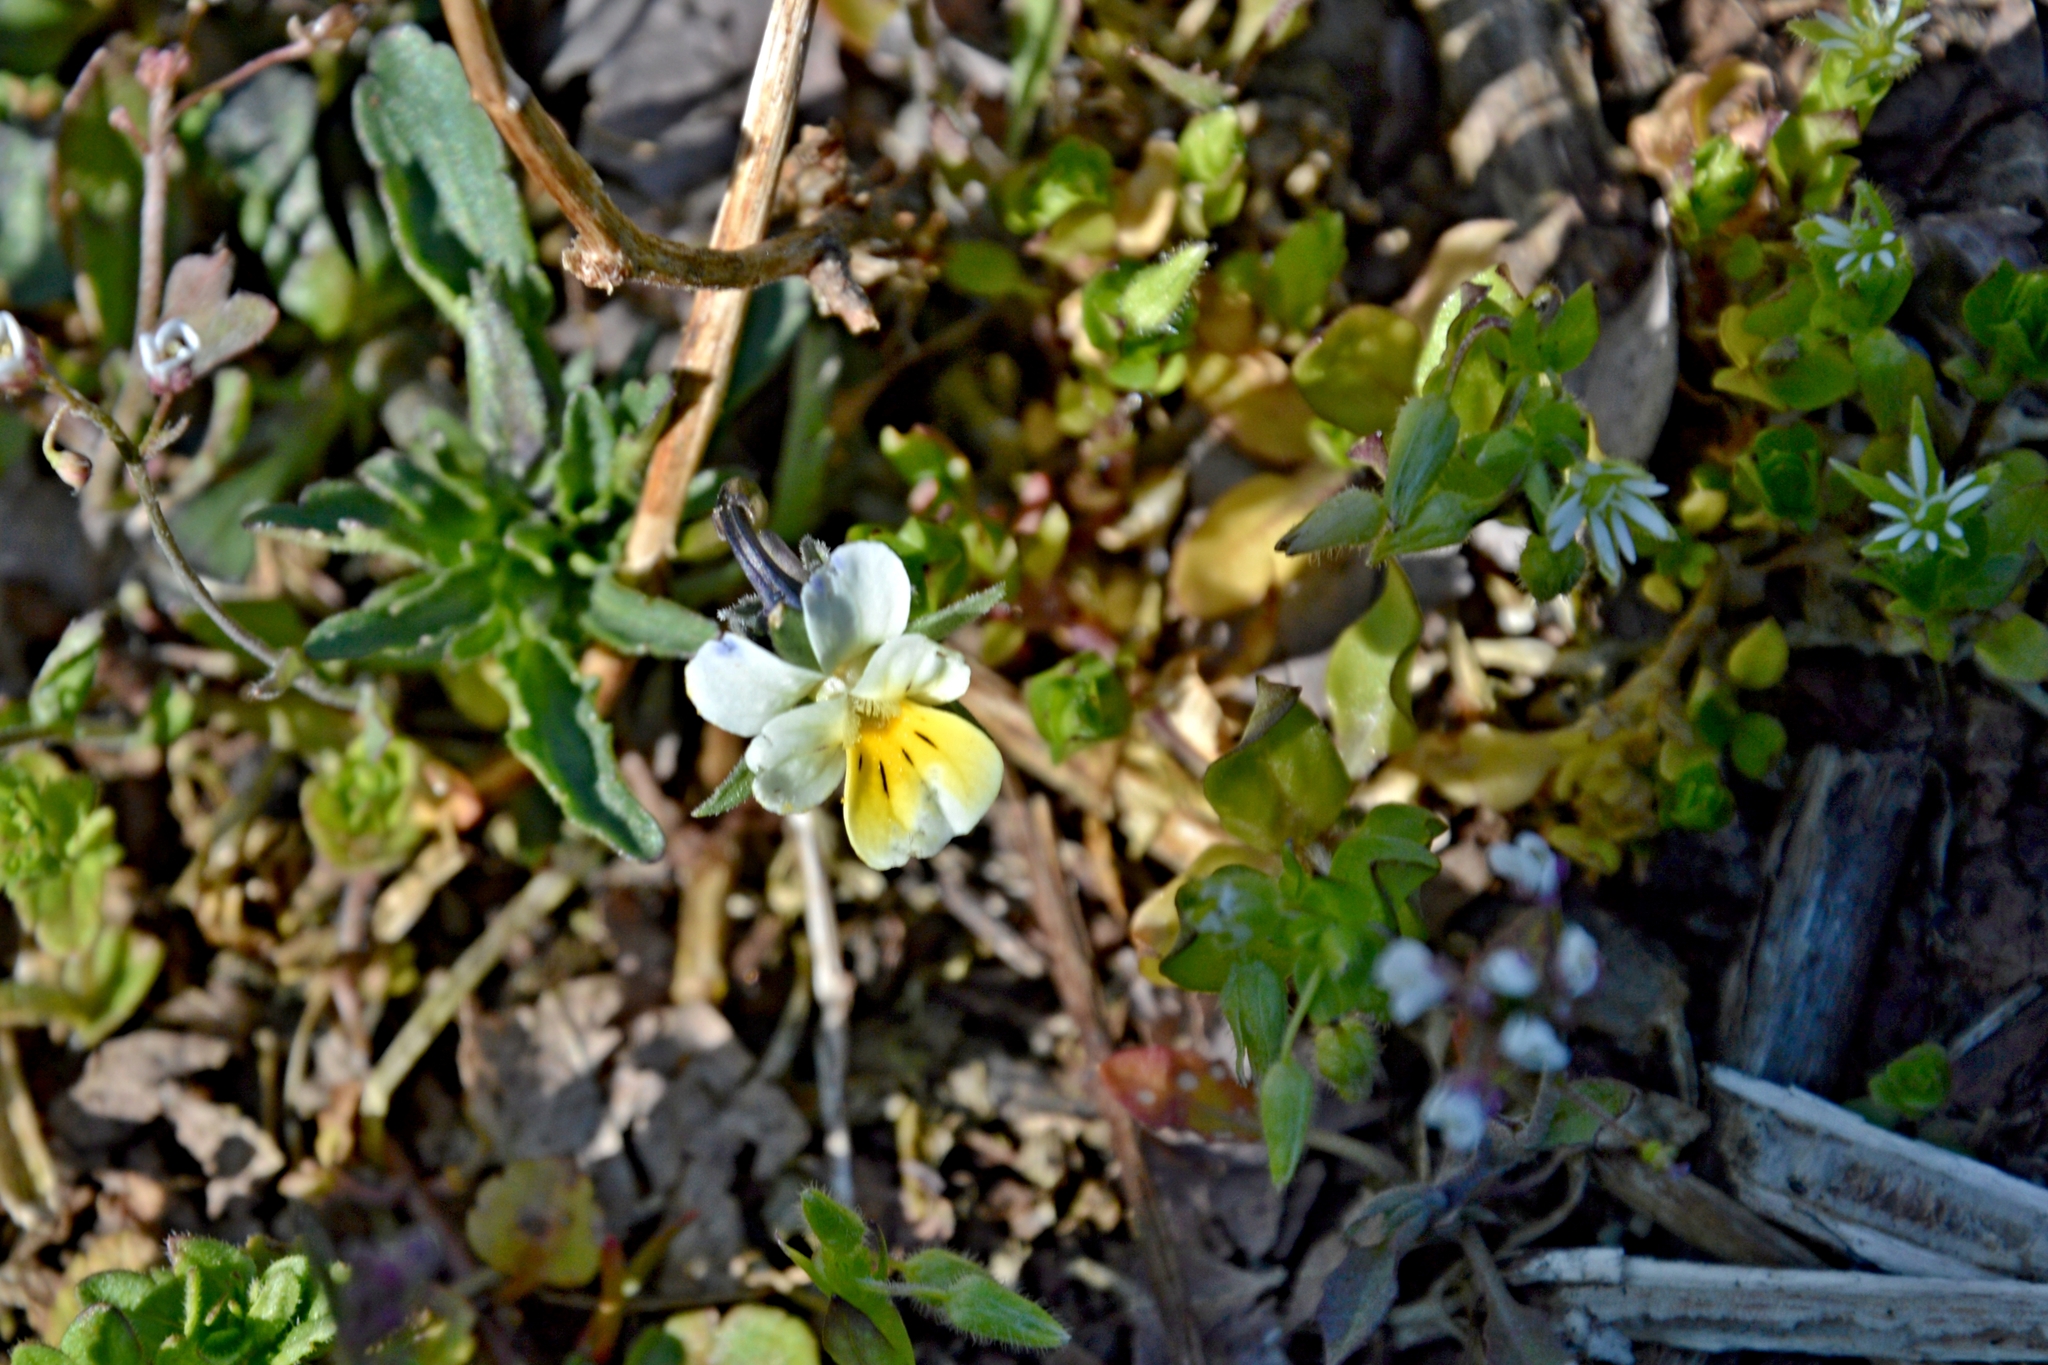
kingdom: Plantae
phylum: Tracheophyta
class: Magnoliopsida
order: Malpighiales
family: Violaceae
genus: Viola
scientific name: Viola arvensis
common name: Field pansy
